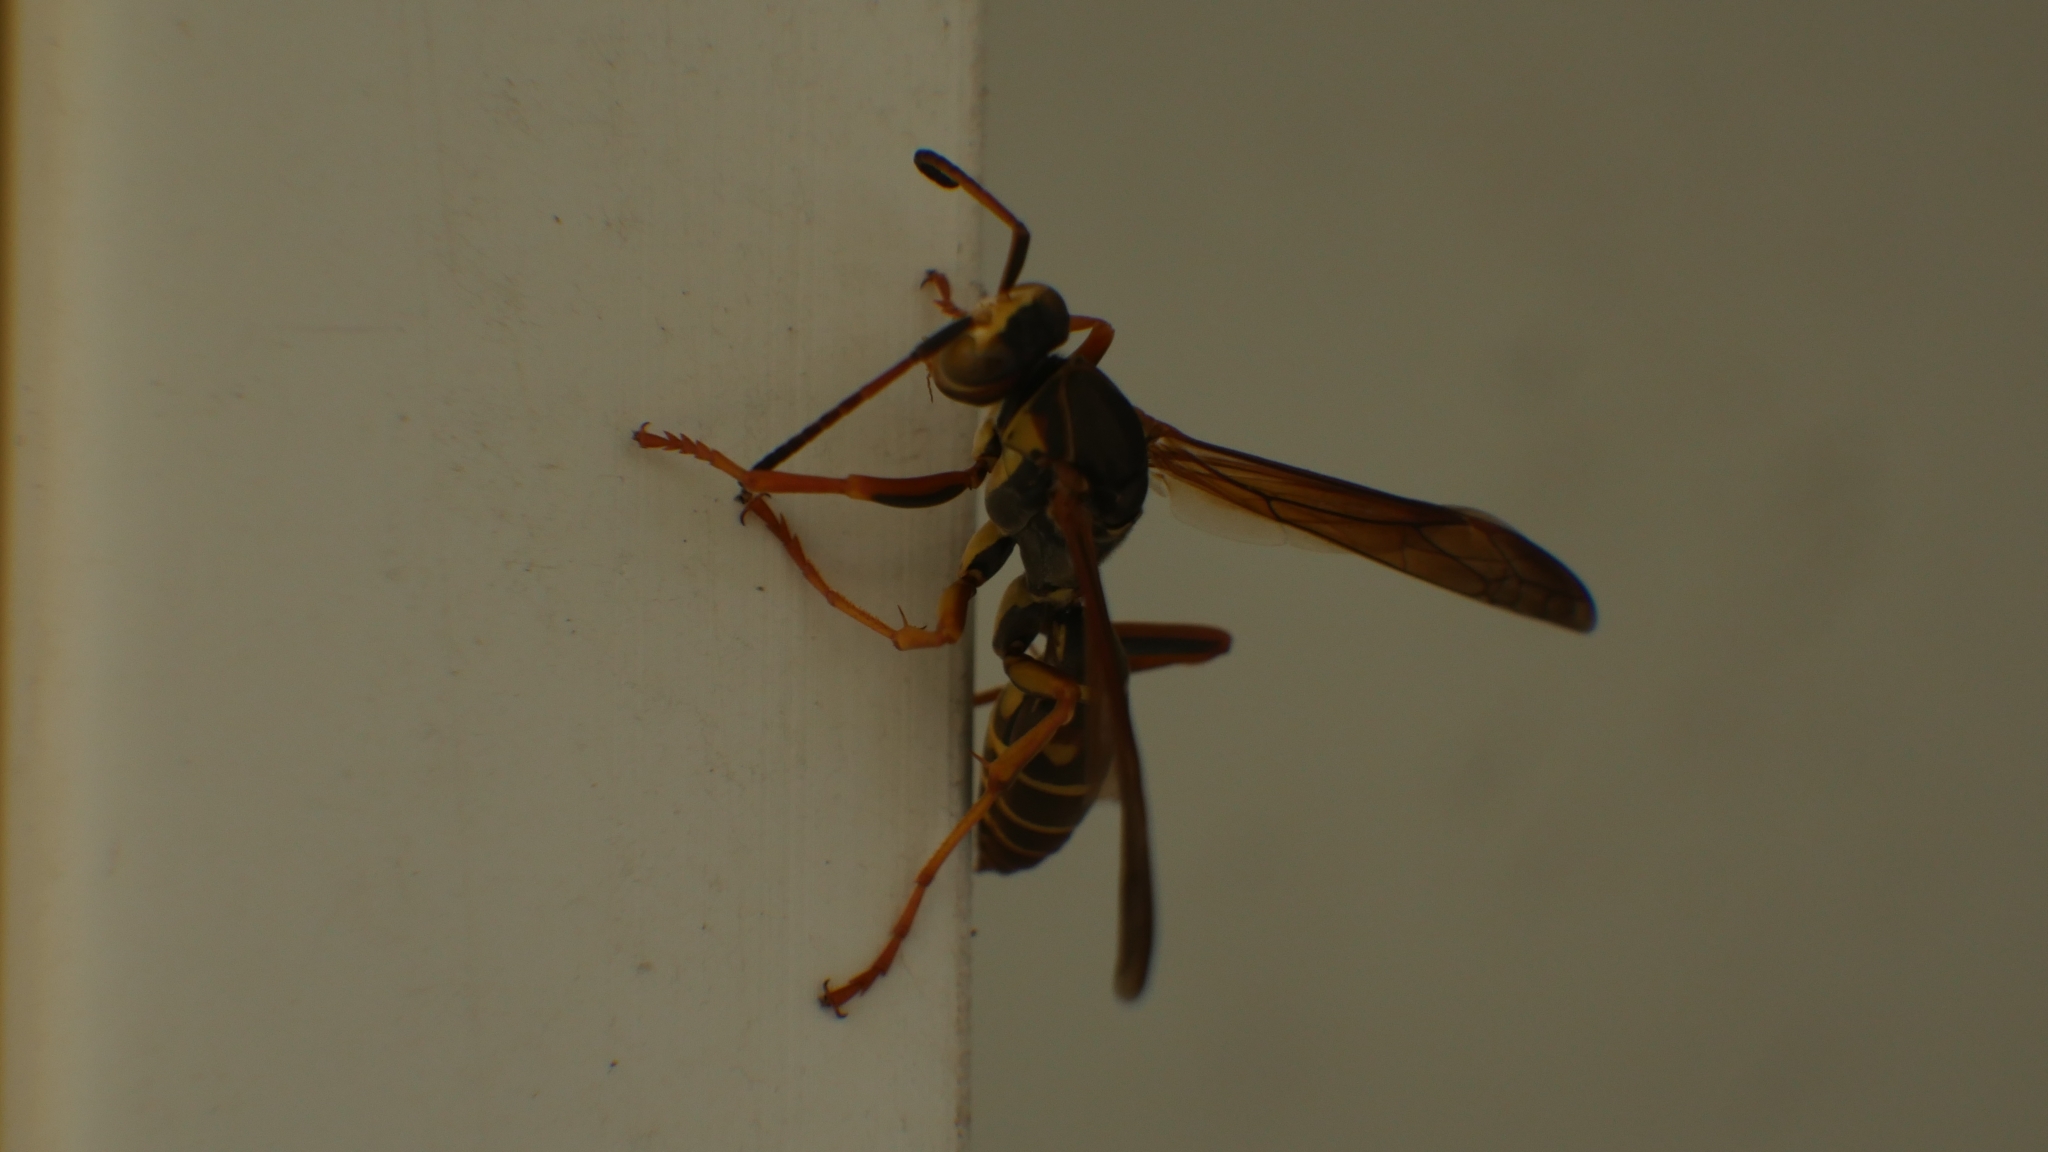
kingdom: Animalia
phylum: Arthropoda
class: Insecta
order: Hymenoptera
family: Eumenidae
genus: Polistes
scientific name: Polistes fuscatus
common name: Dark paper wasp
